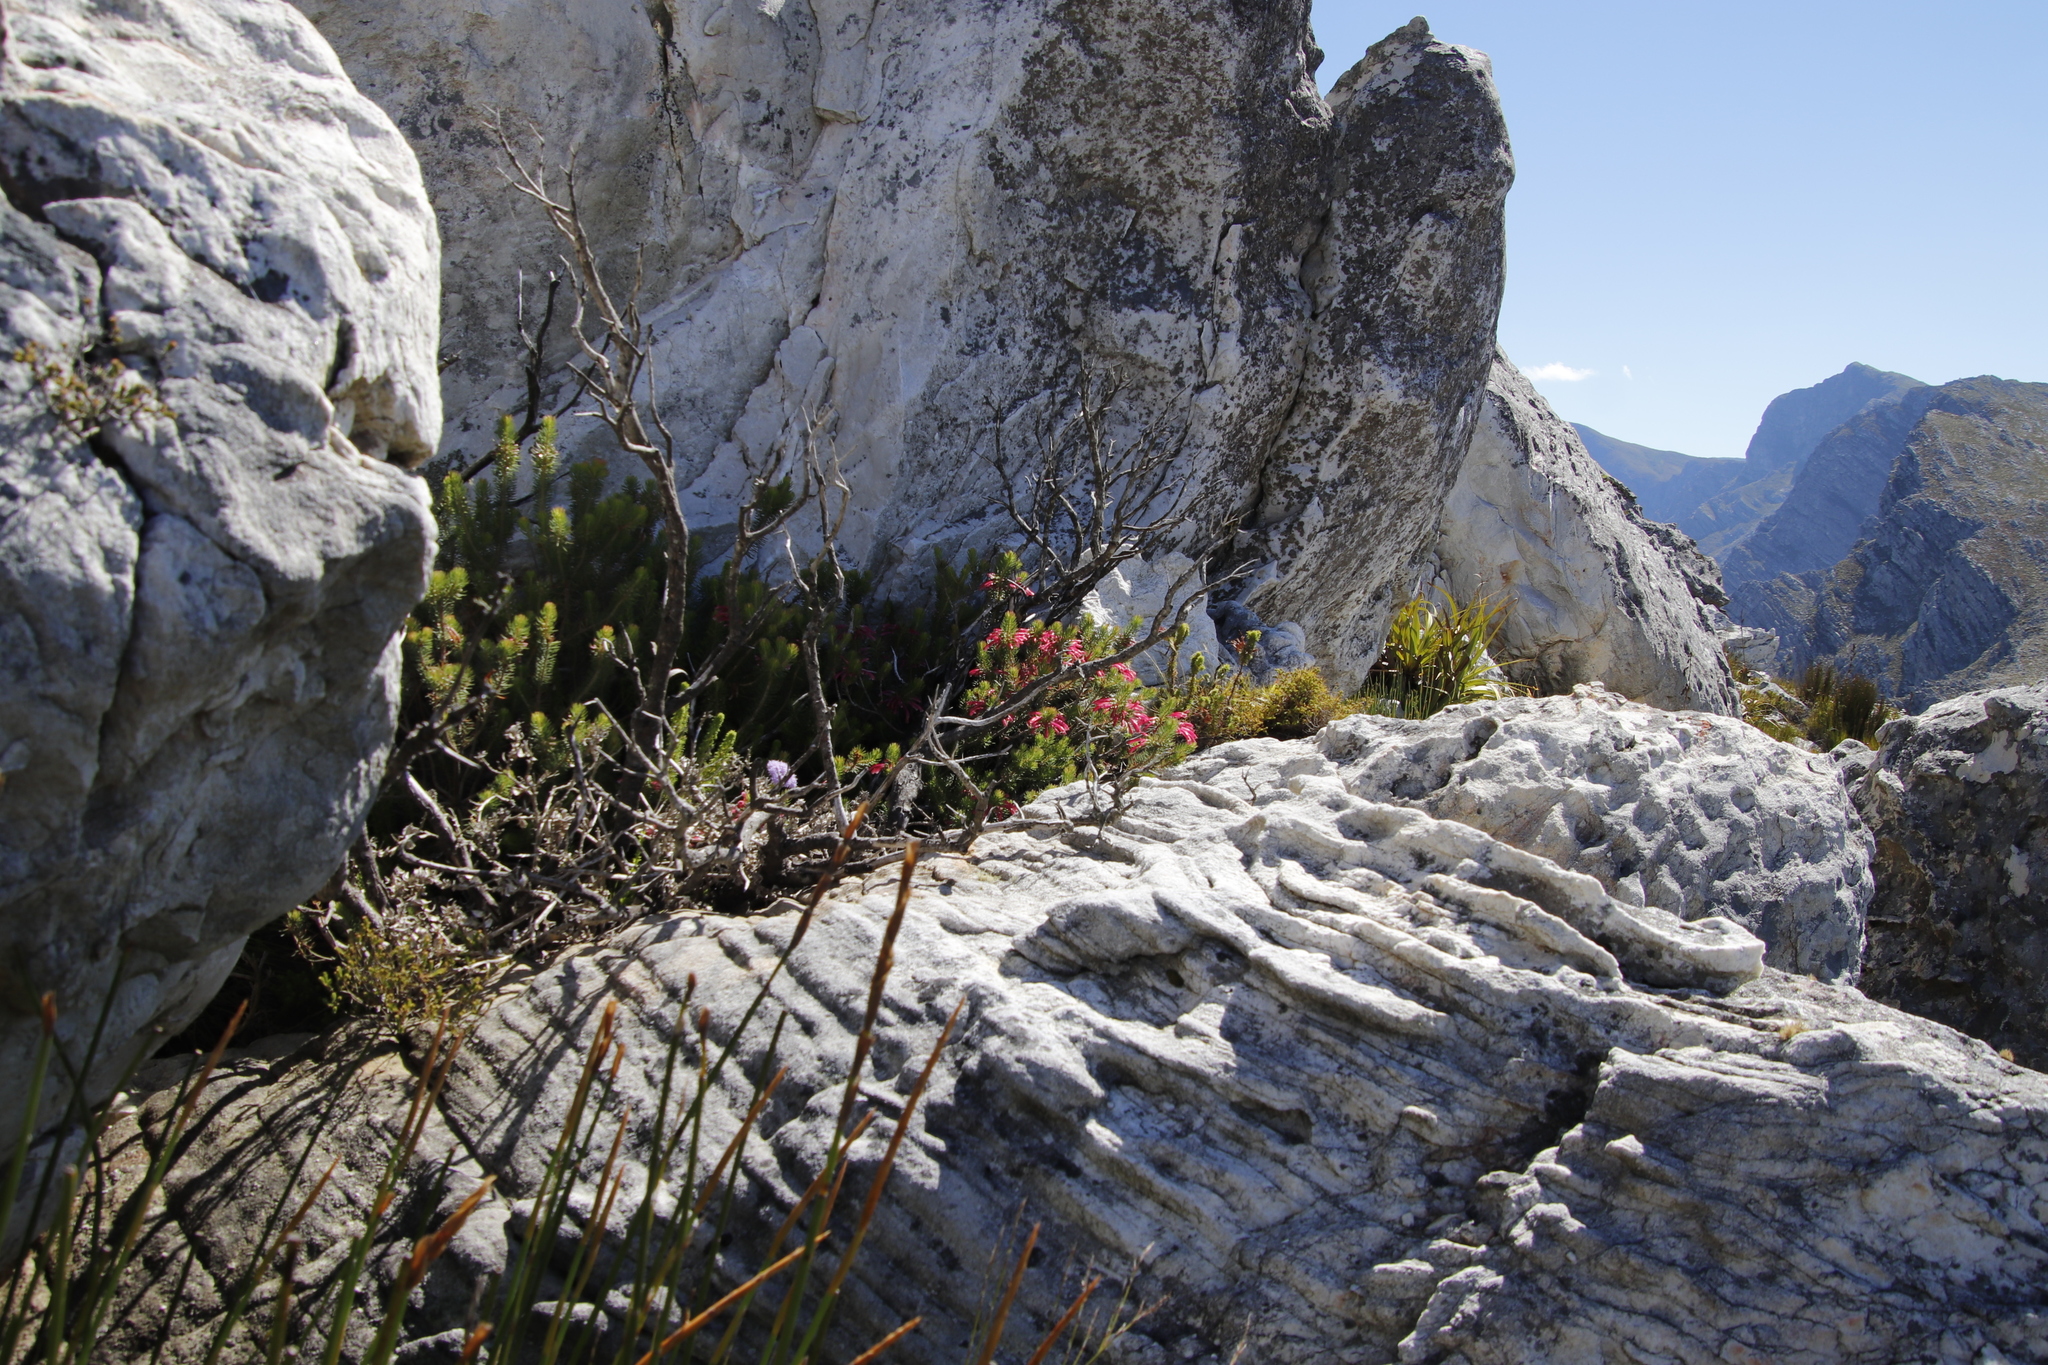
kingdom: Plantae
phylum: Tracheophyta
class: Magnoliopsida
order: Ericales
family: Ericaceae
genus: Erica
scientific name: Erica thomae
